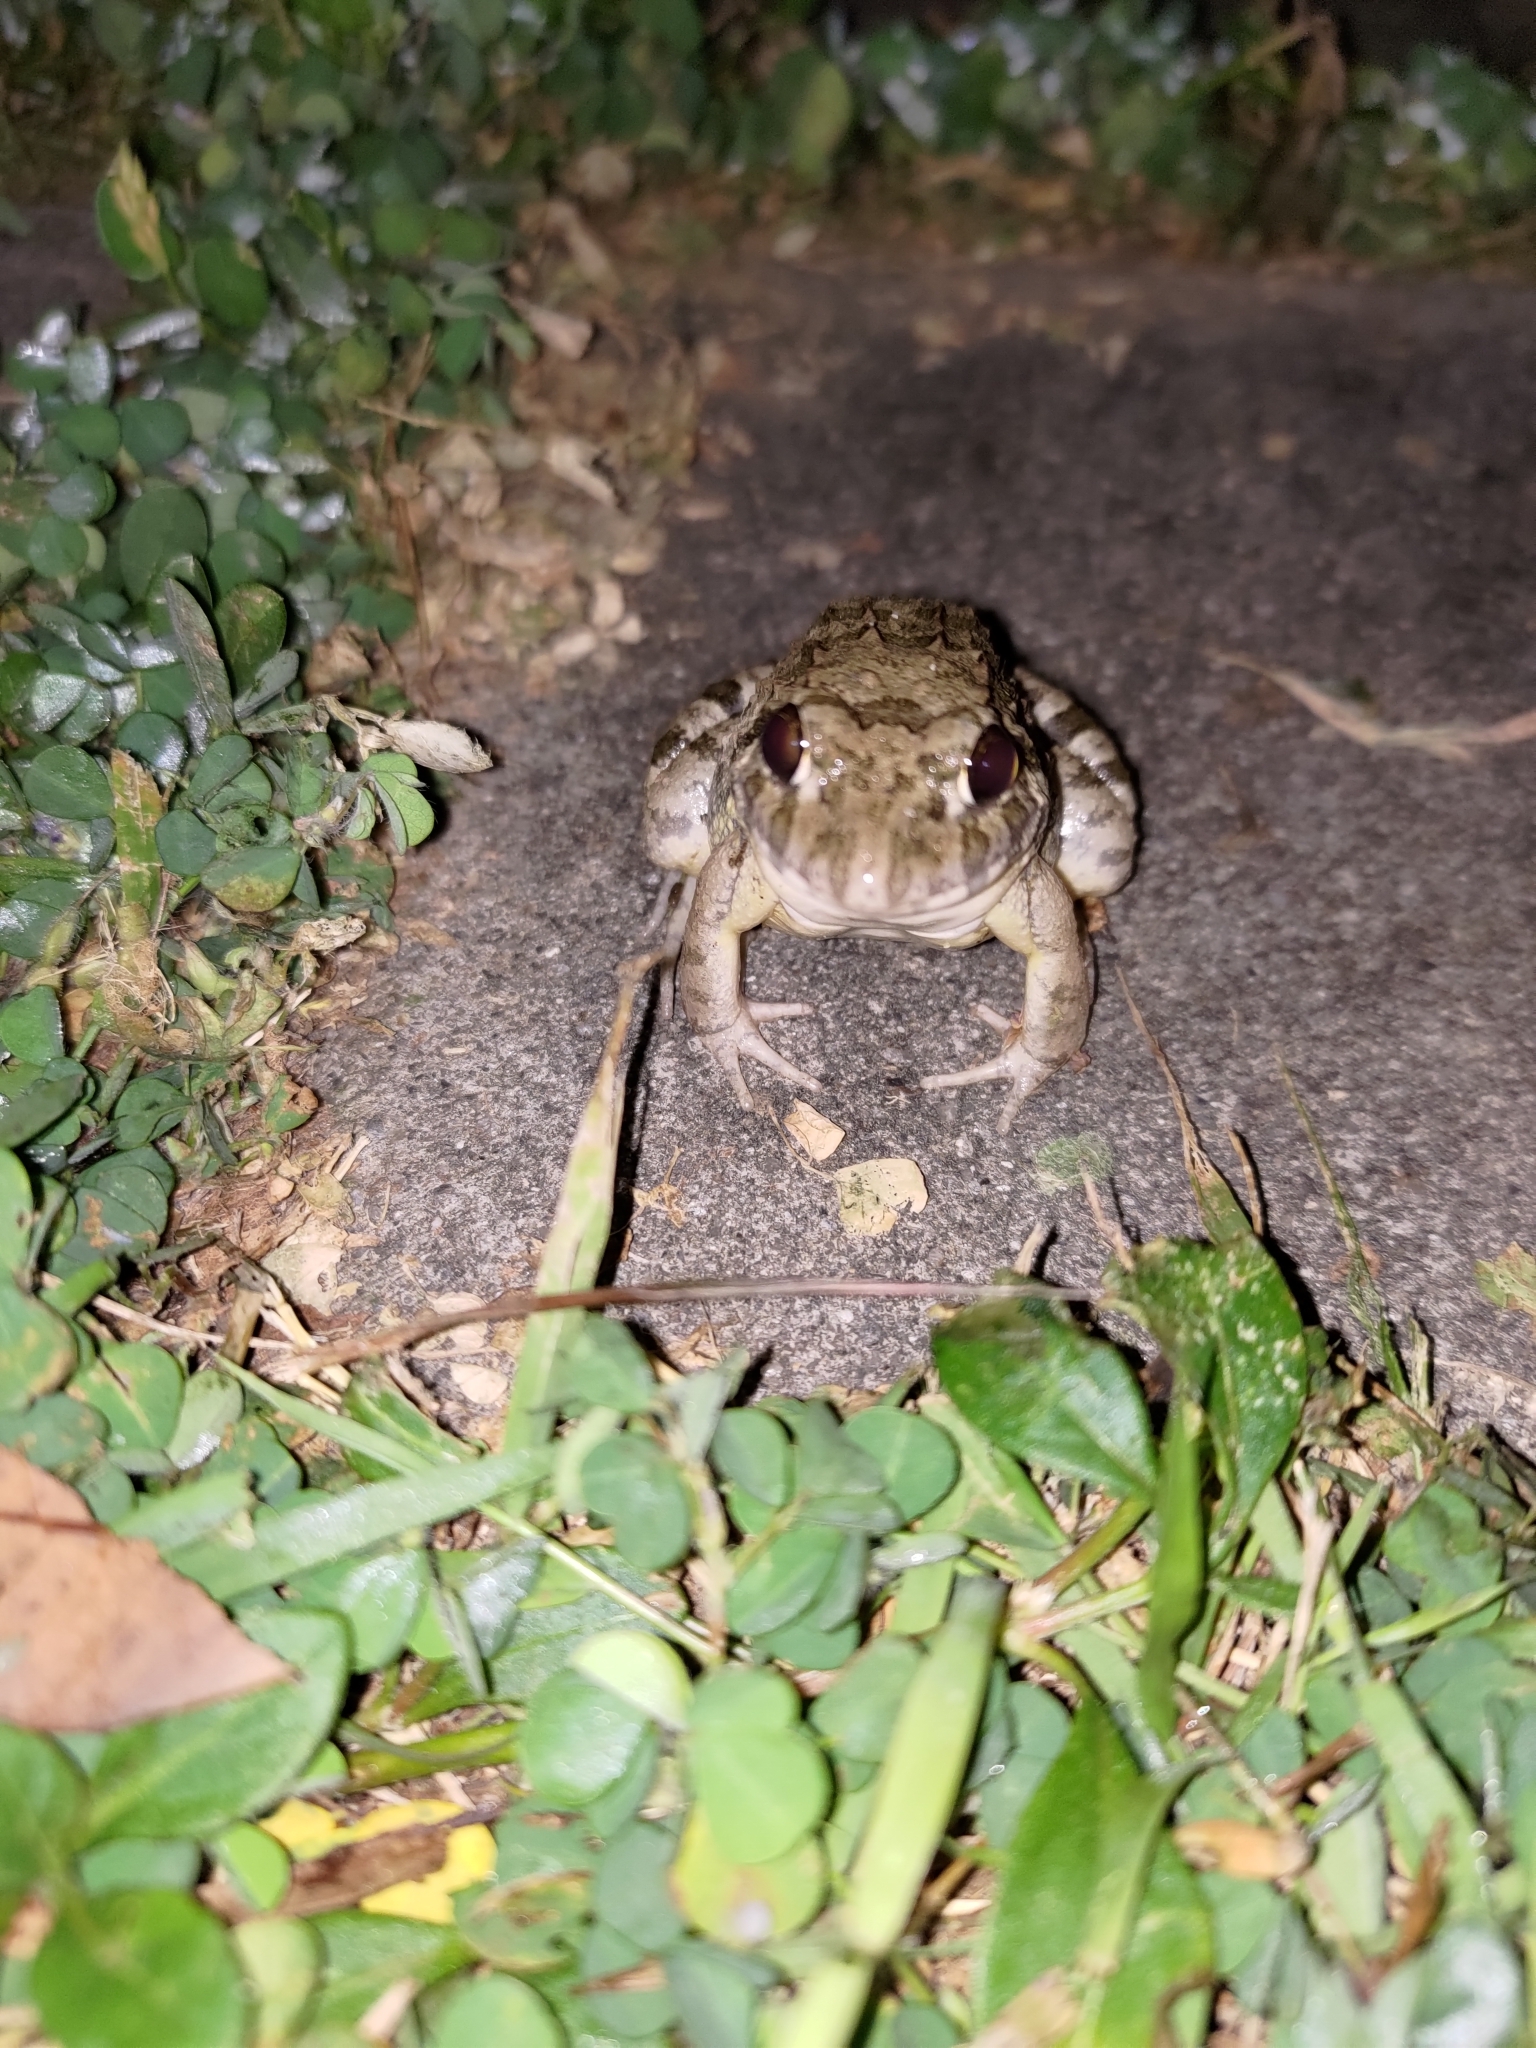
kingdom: Animalia
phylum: Chordata
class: Amphibia
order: Anura
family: Dicroglossidae
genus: Fejervarya
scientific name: Fejervarya limnocharis
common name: Asian grass frog/common pond frog/field frog/grass frog/indian rice frog
